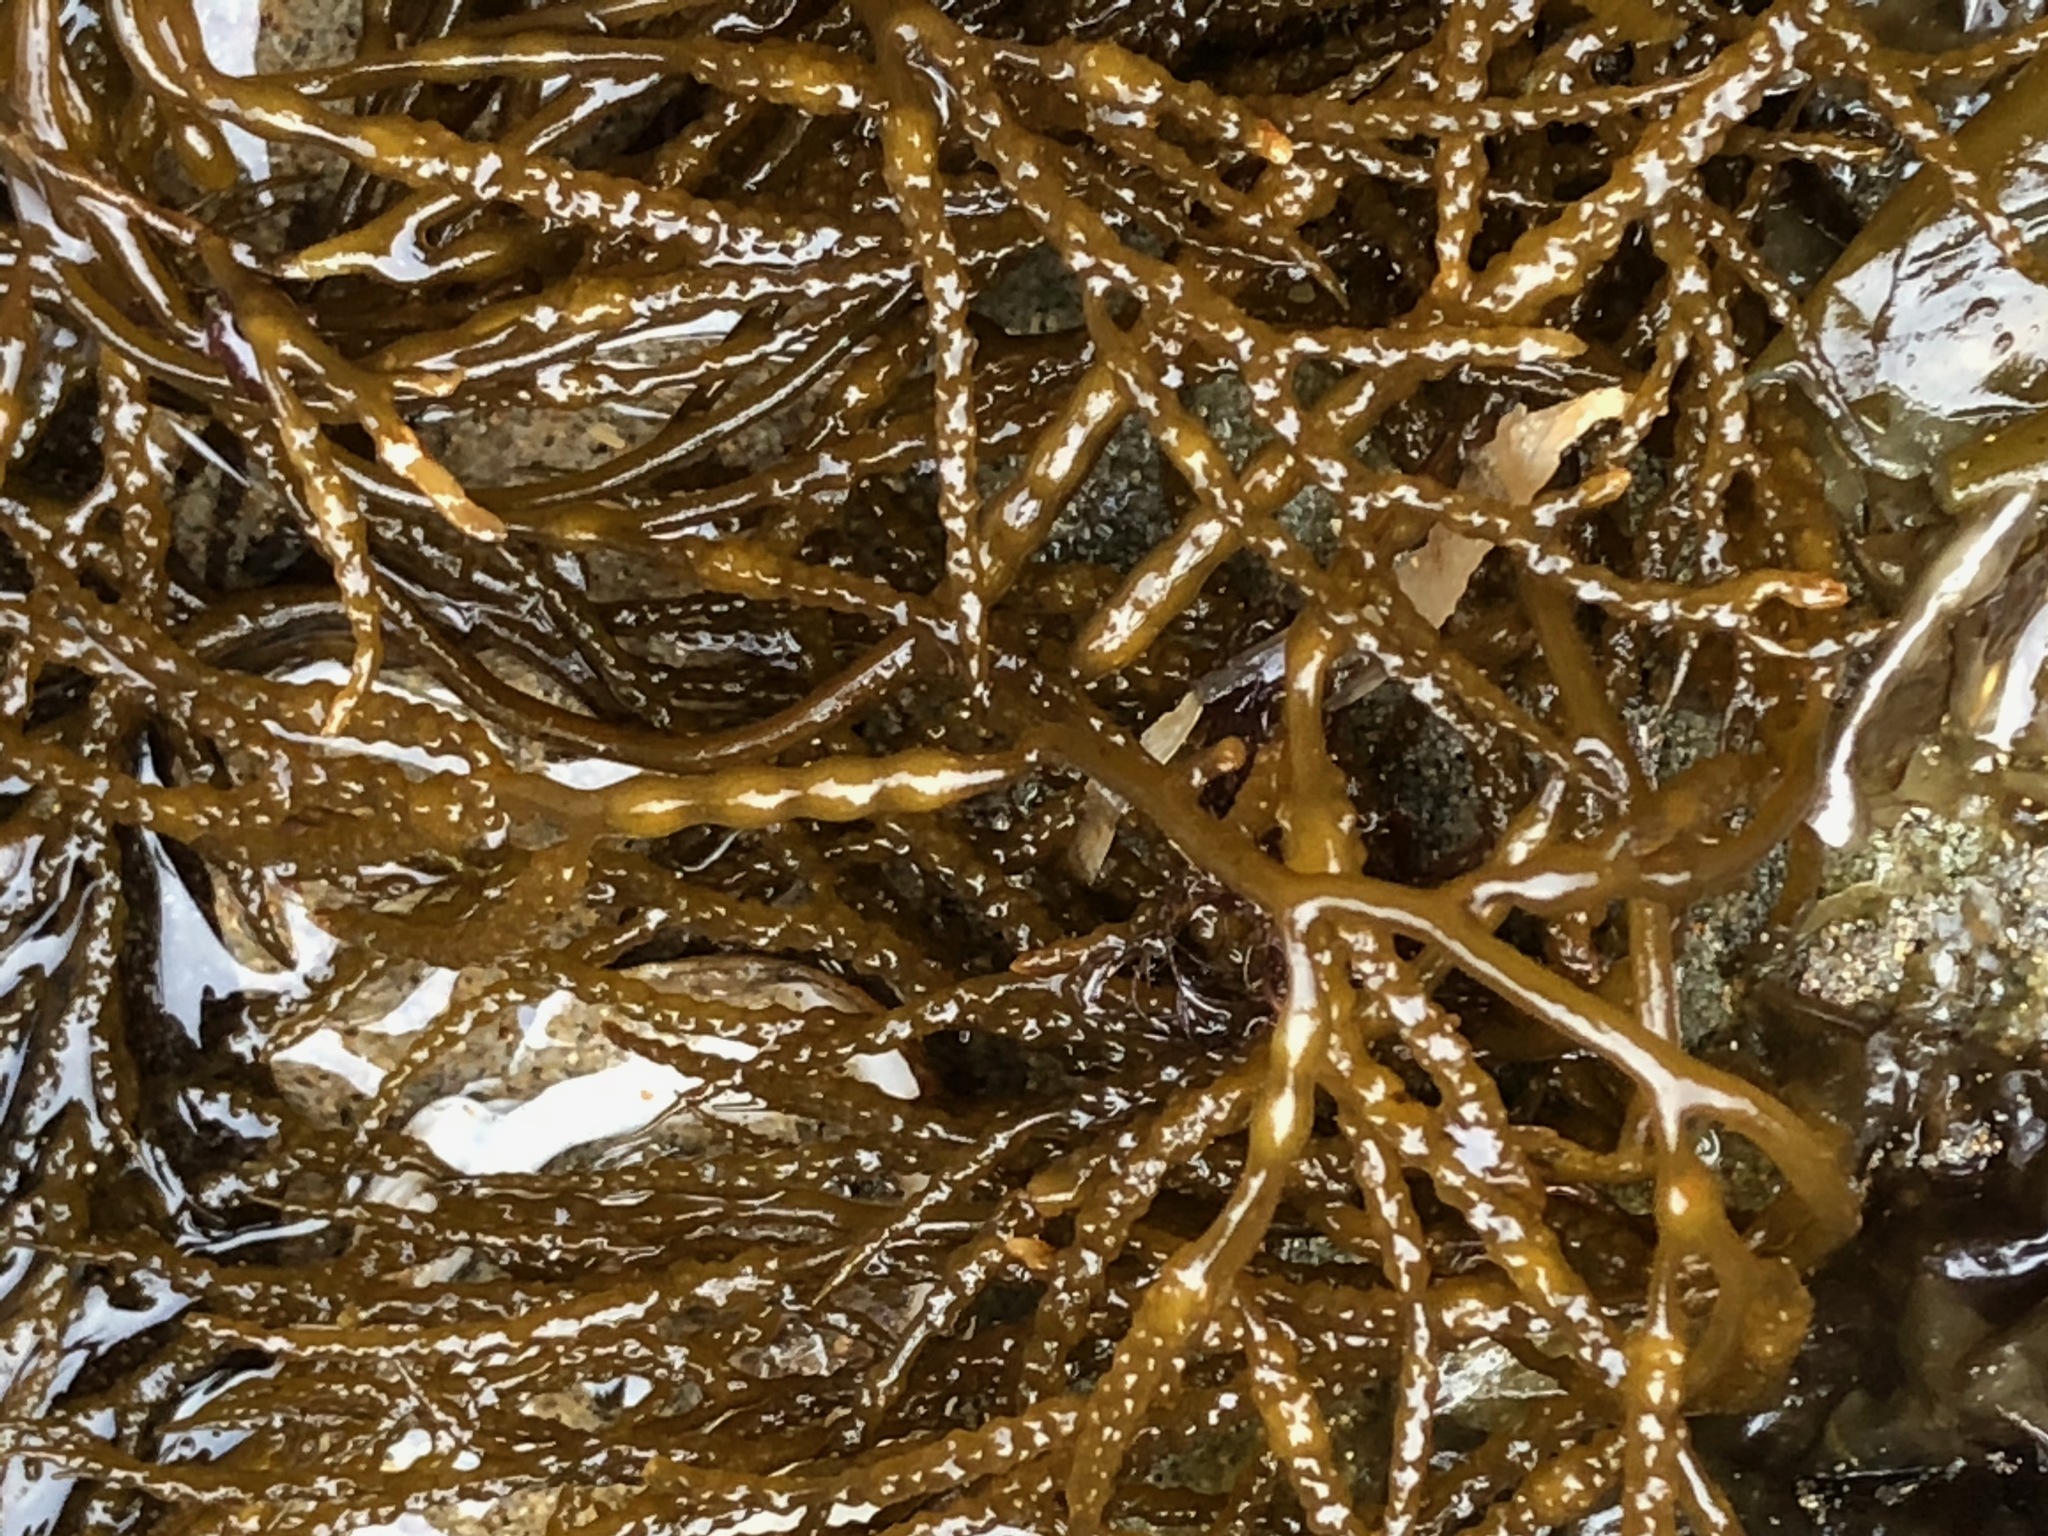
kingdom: Chromista
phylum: Ochrophyta
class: Phaeophyceae
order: Fucales
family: Sargassaceae
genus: Stephanocystis
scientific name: Stephanocystis
